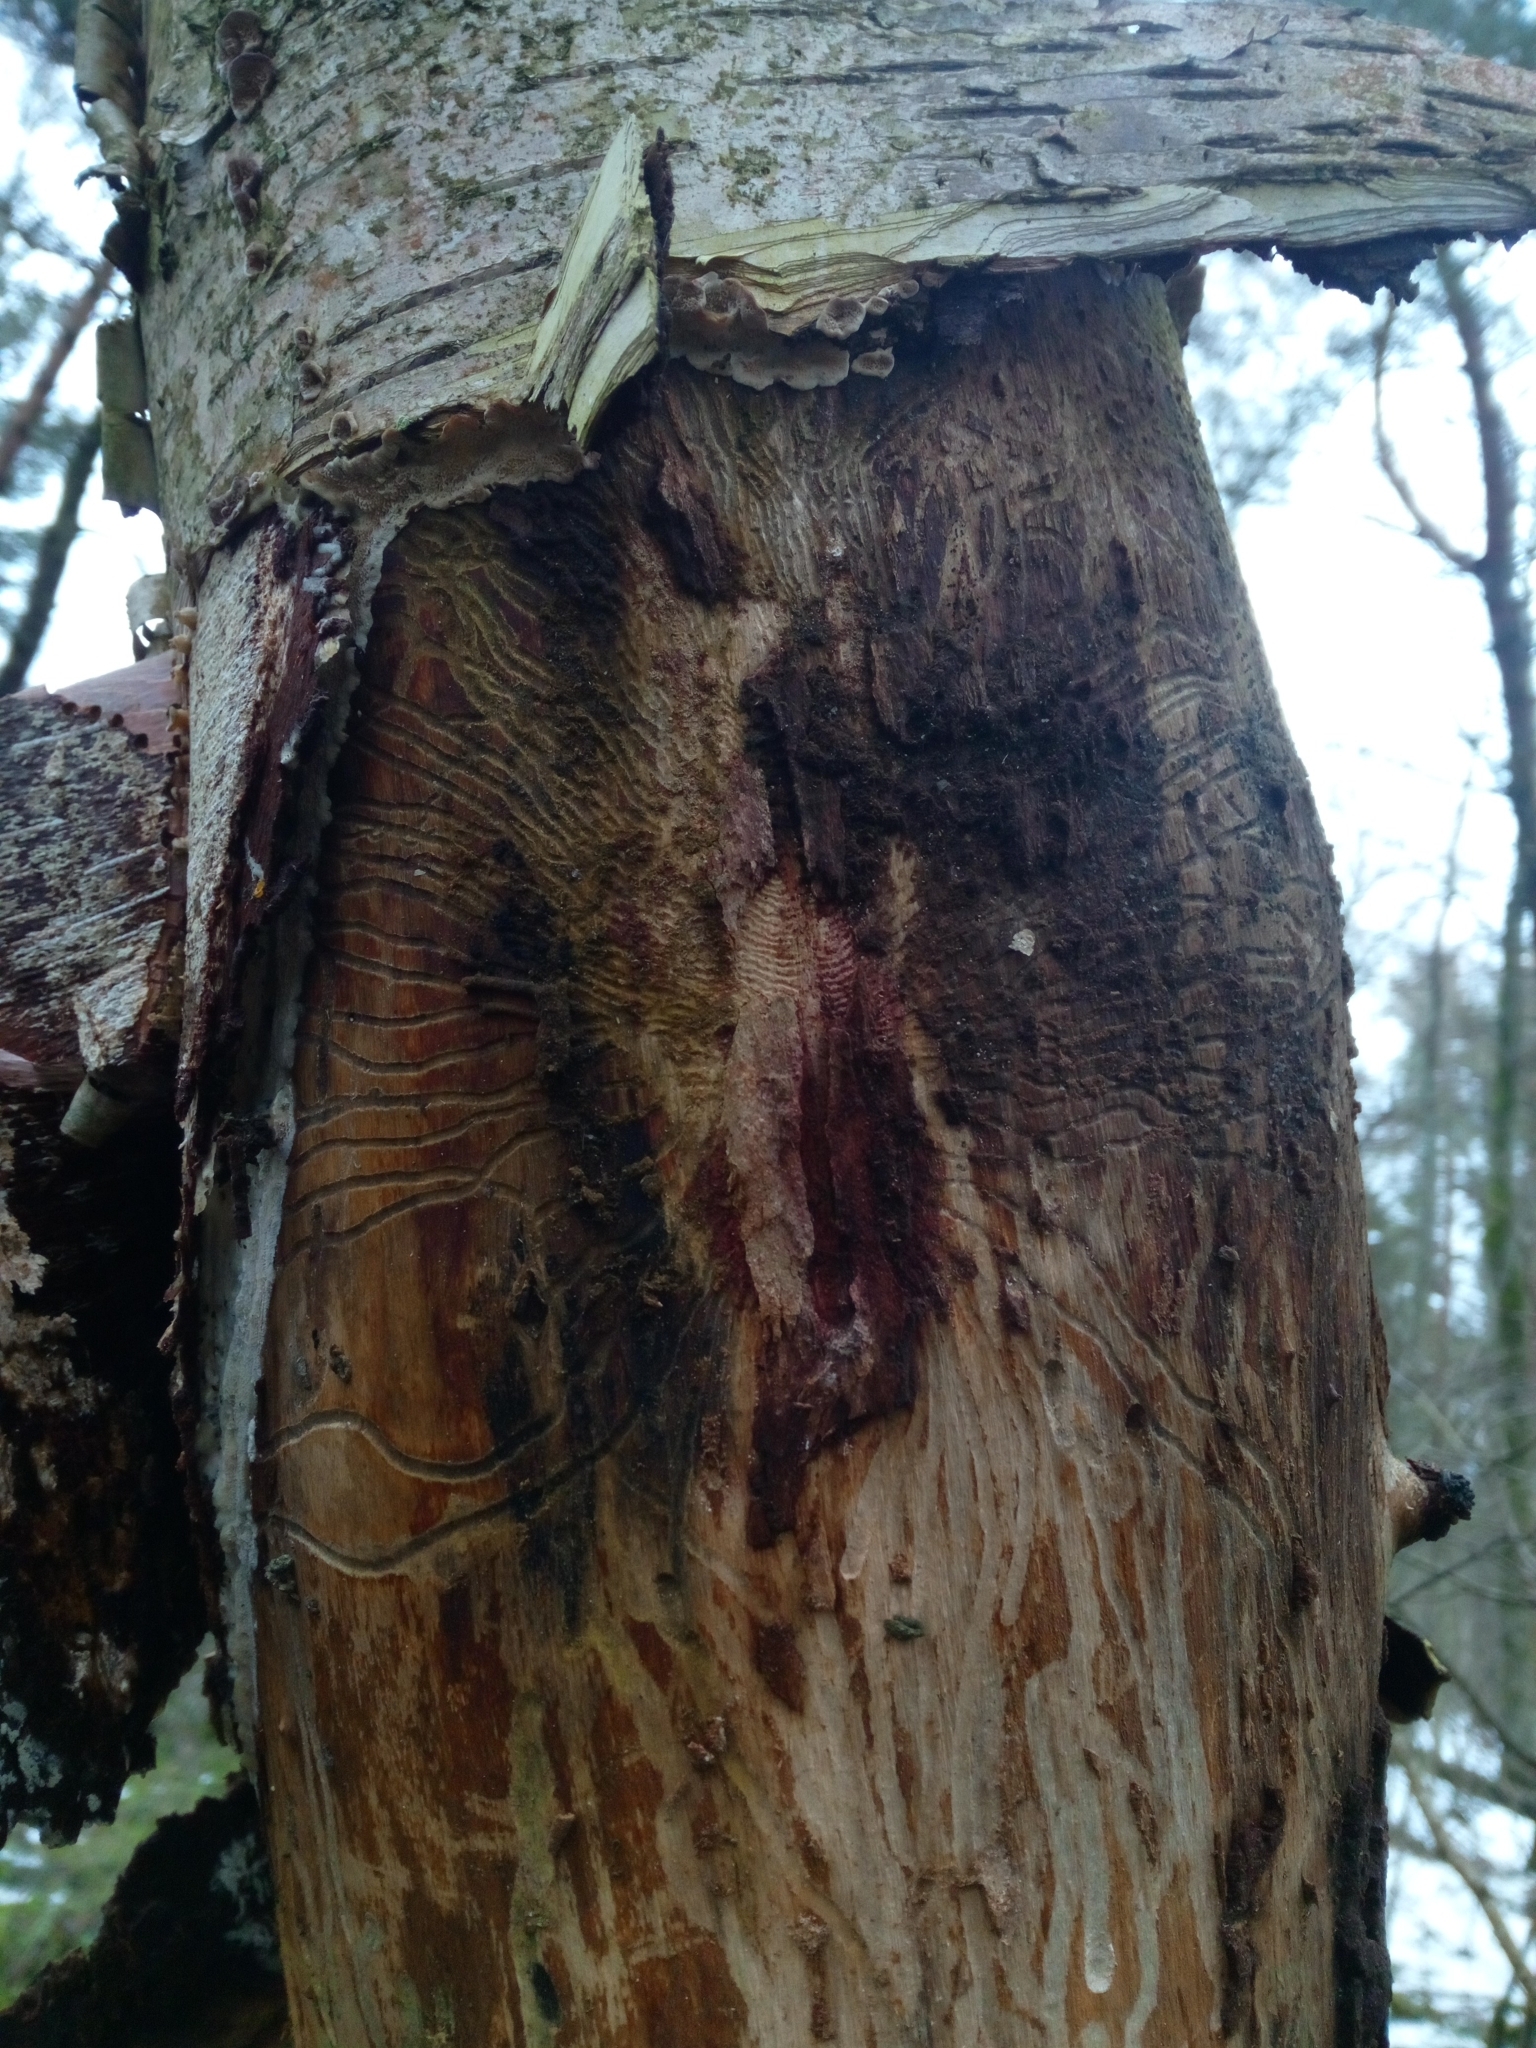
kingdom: Animalia
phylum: Arthropoda
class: Insecta
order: Coleoptera
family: Curculionidae
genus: Scolytus
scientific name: Scolytus ratzeburgii
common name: Birch bark beetle
